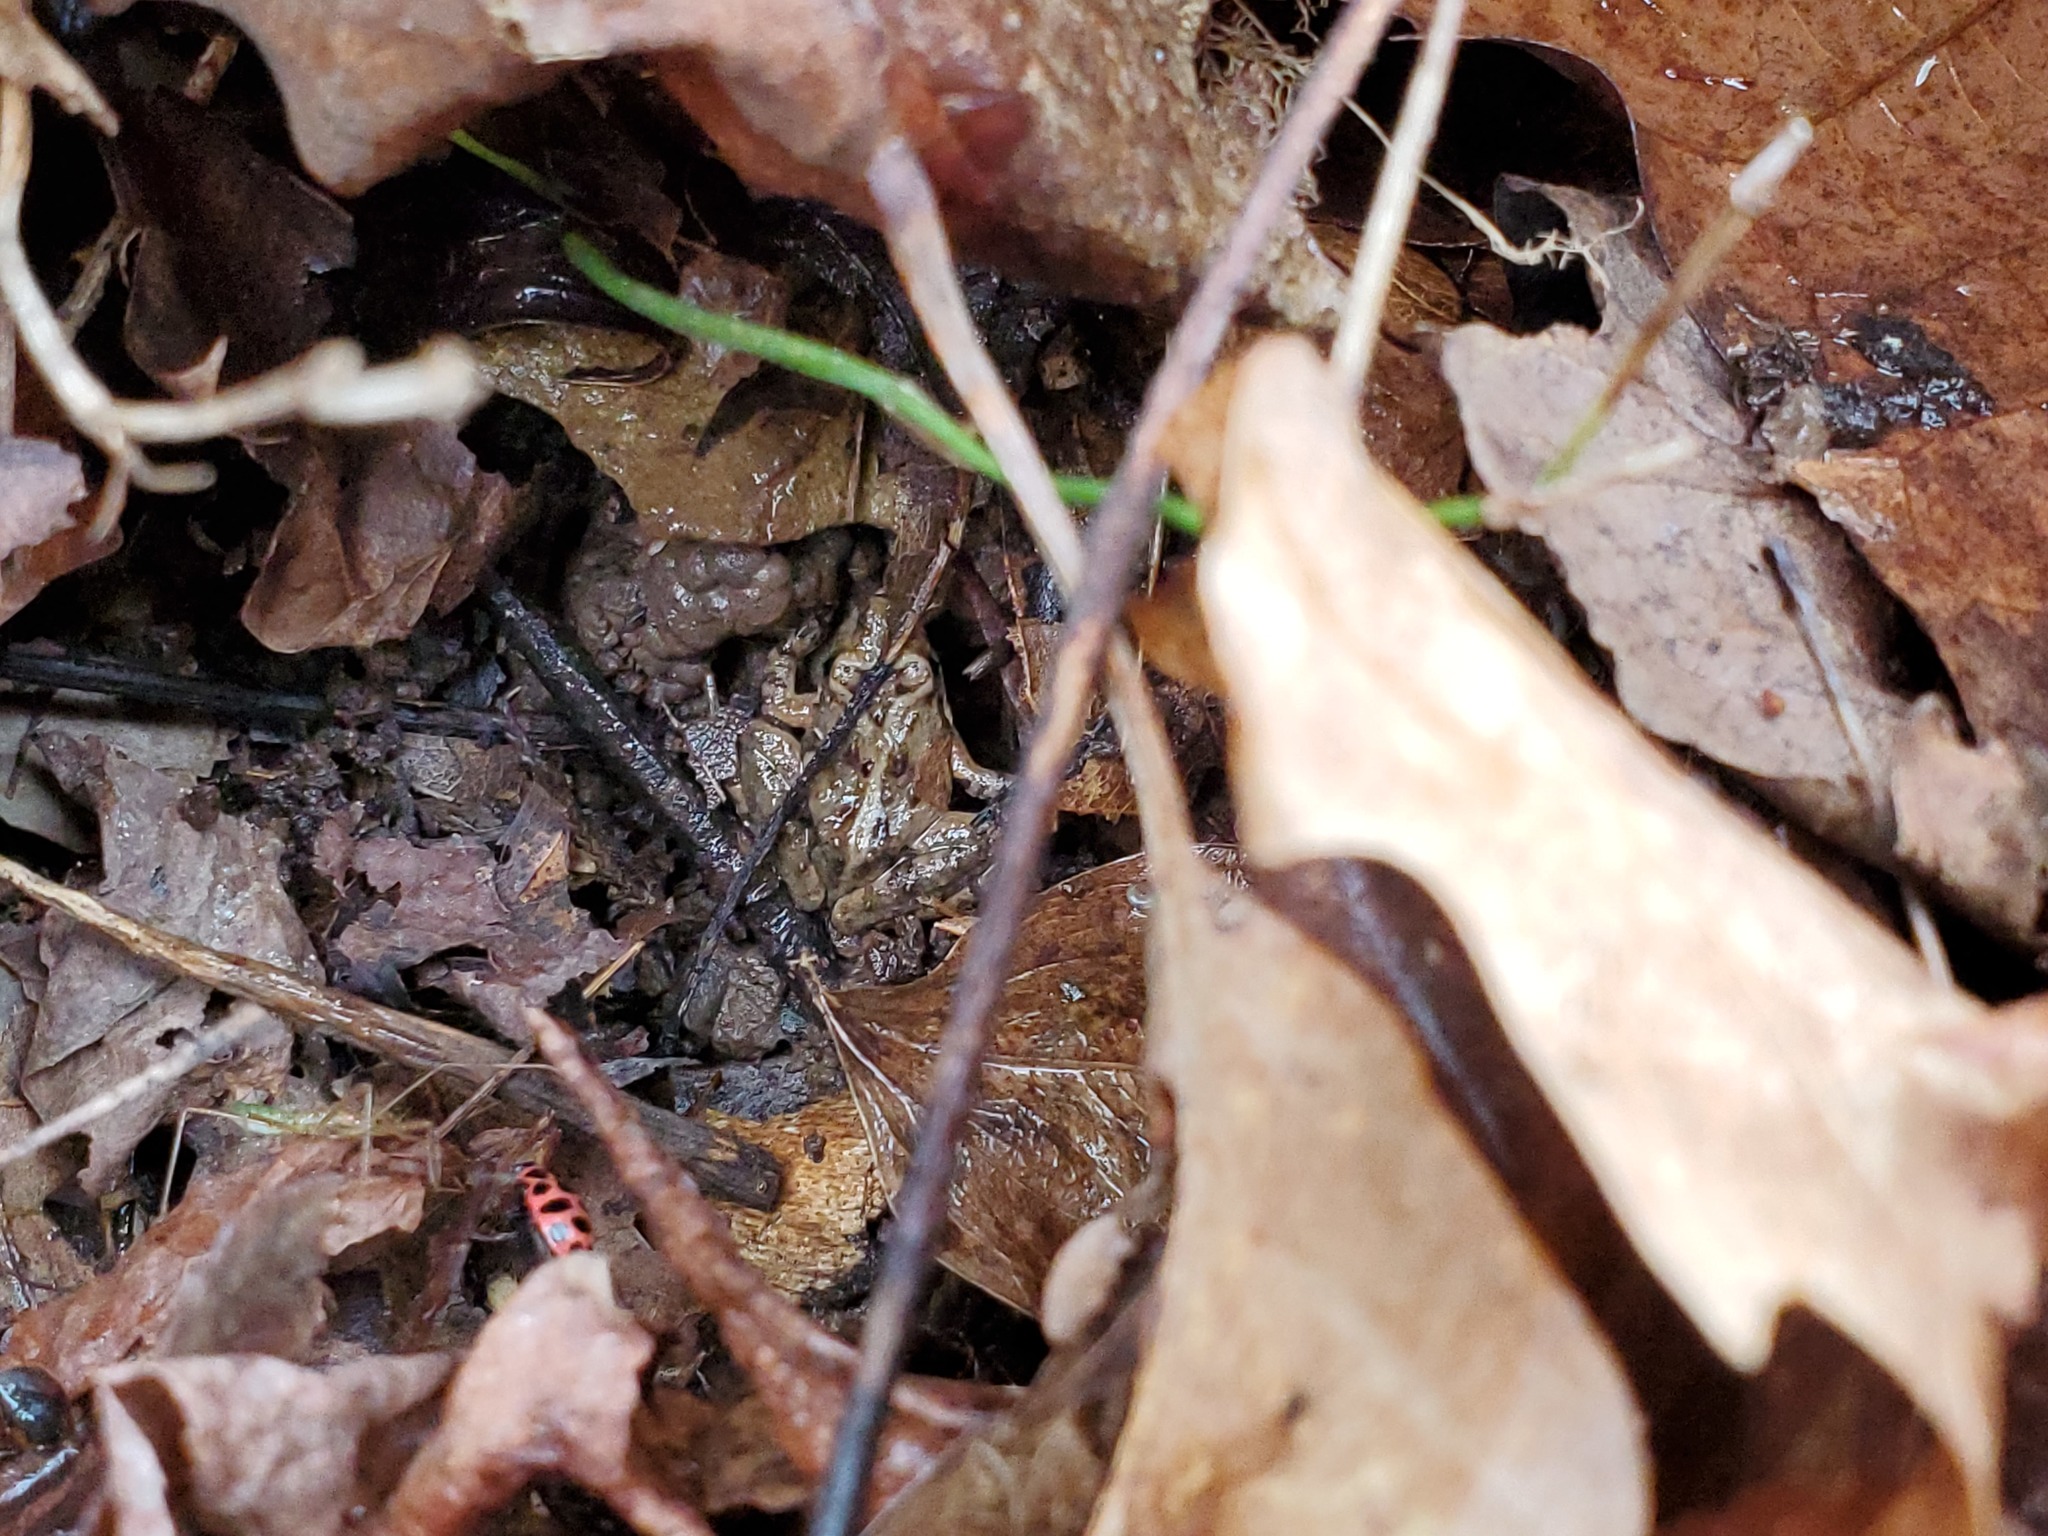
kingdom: Animalia
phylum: Chordata
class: Amphibia
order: Anura
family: Hylidae
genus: Acris
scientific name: Acris crepitans
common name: Northern cricket frog
